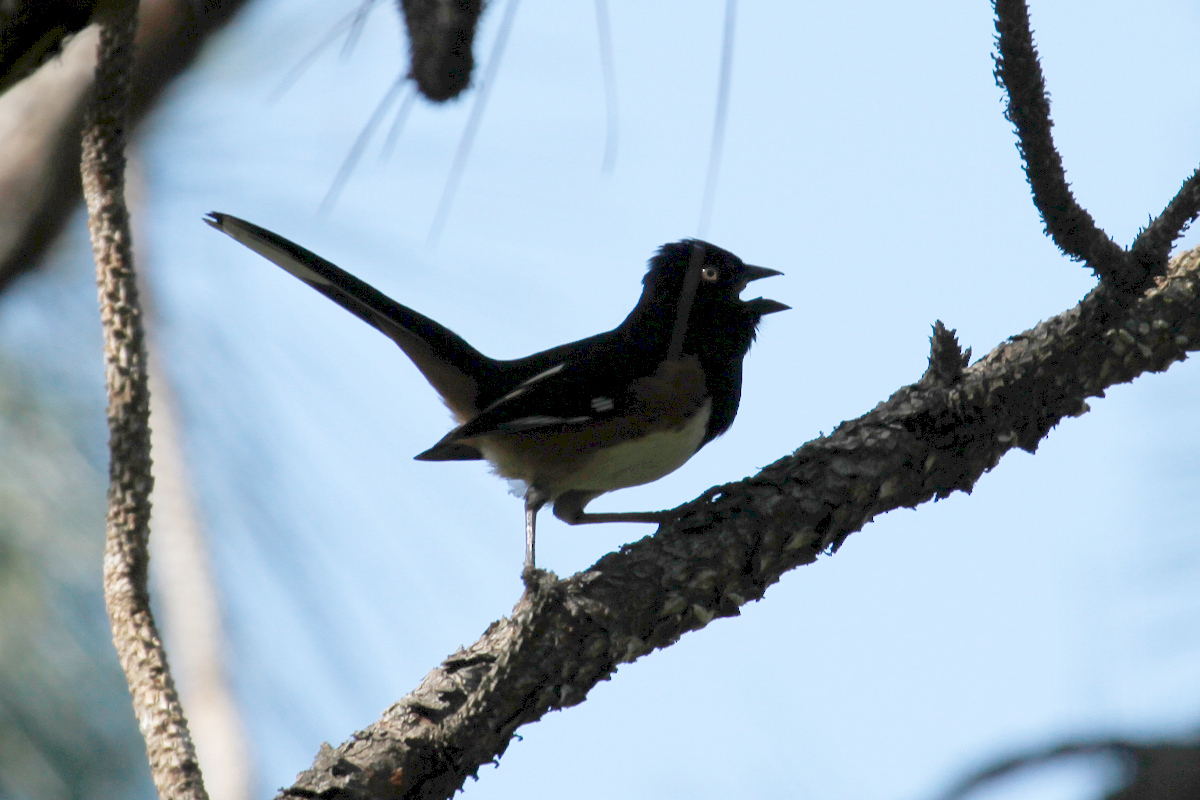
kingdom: Animalia
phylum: Chordata
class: Aves
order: Passeriformes
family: Passerellidae
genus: Pipilo
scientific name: Pipilo erythrophthalmus
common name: Eastern towhee
